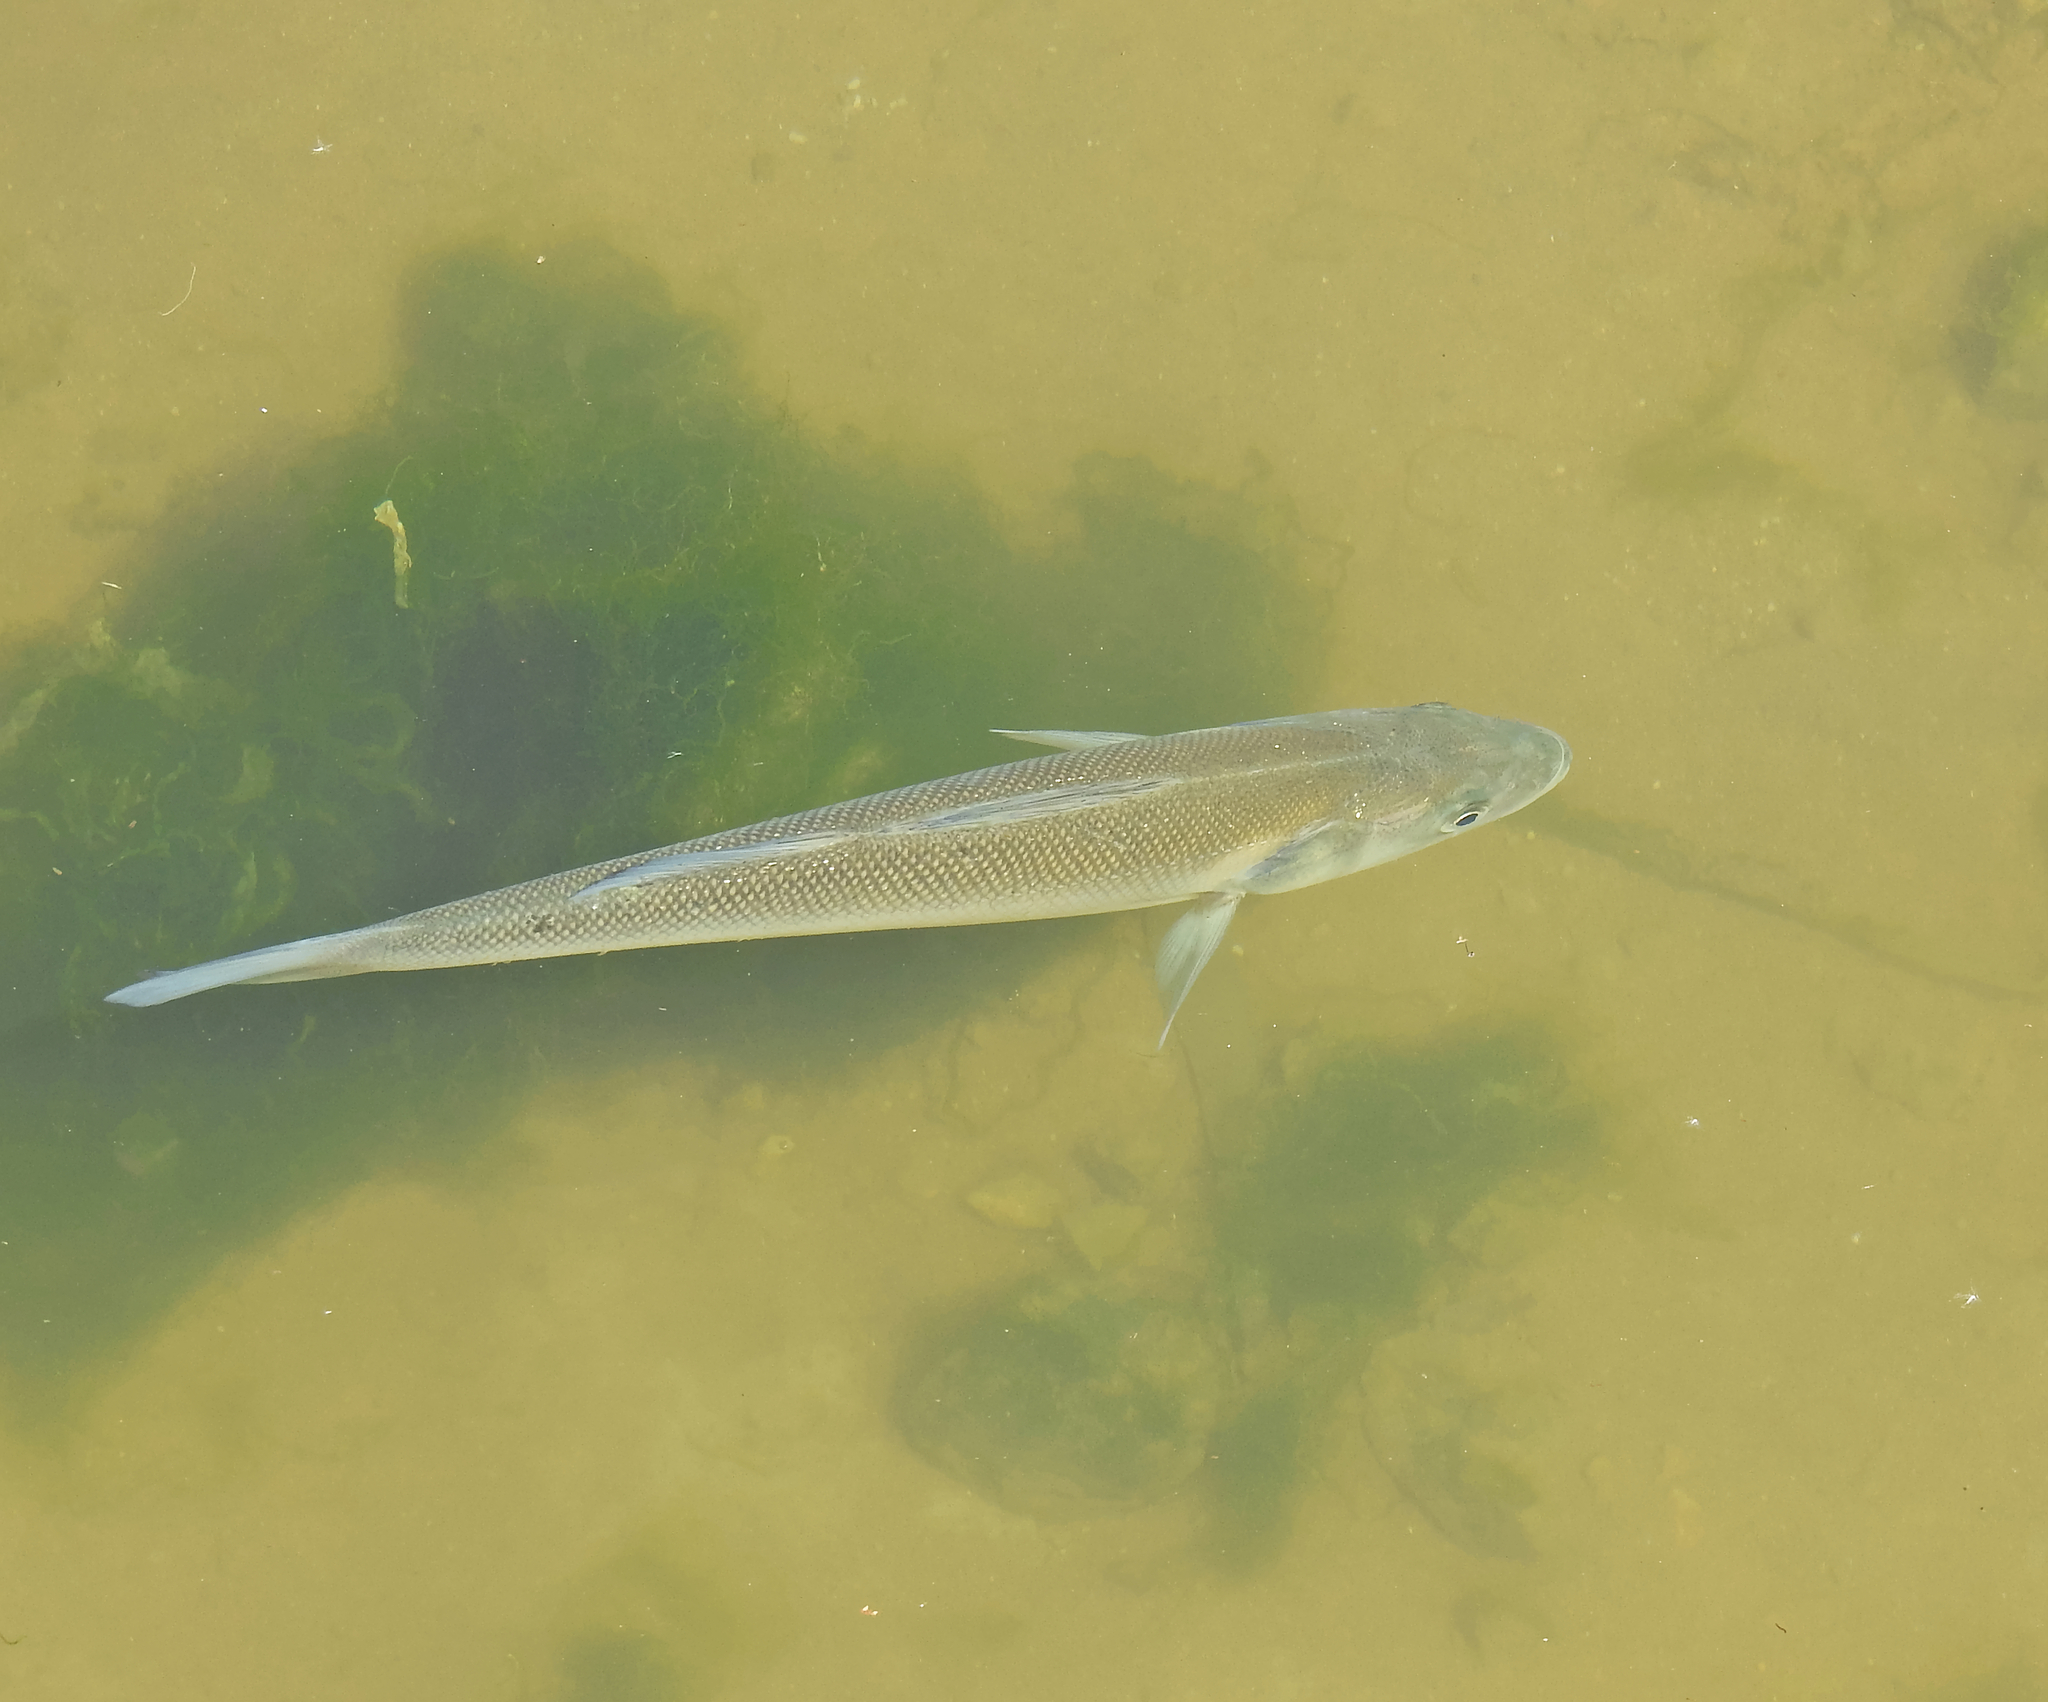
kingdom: Animalia
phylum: Chordata
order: Perciformes
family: Moronidae
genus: Dicentrarchus
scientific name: Dicentrarchus labrax
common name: European seabass
